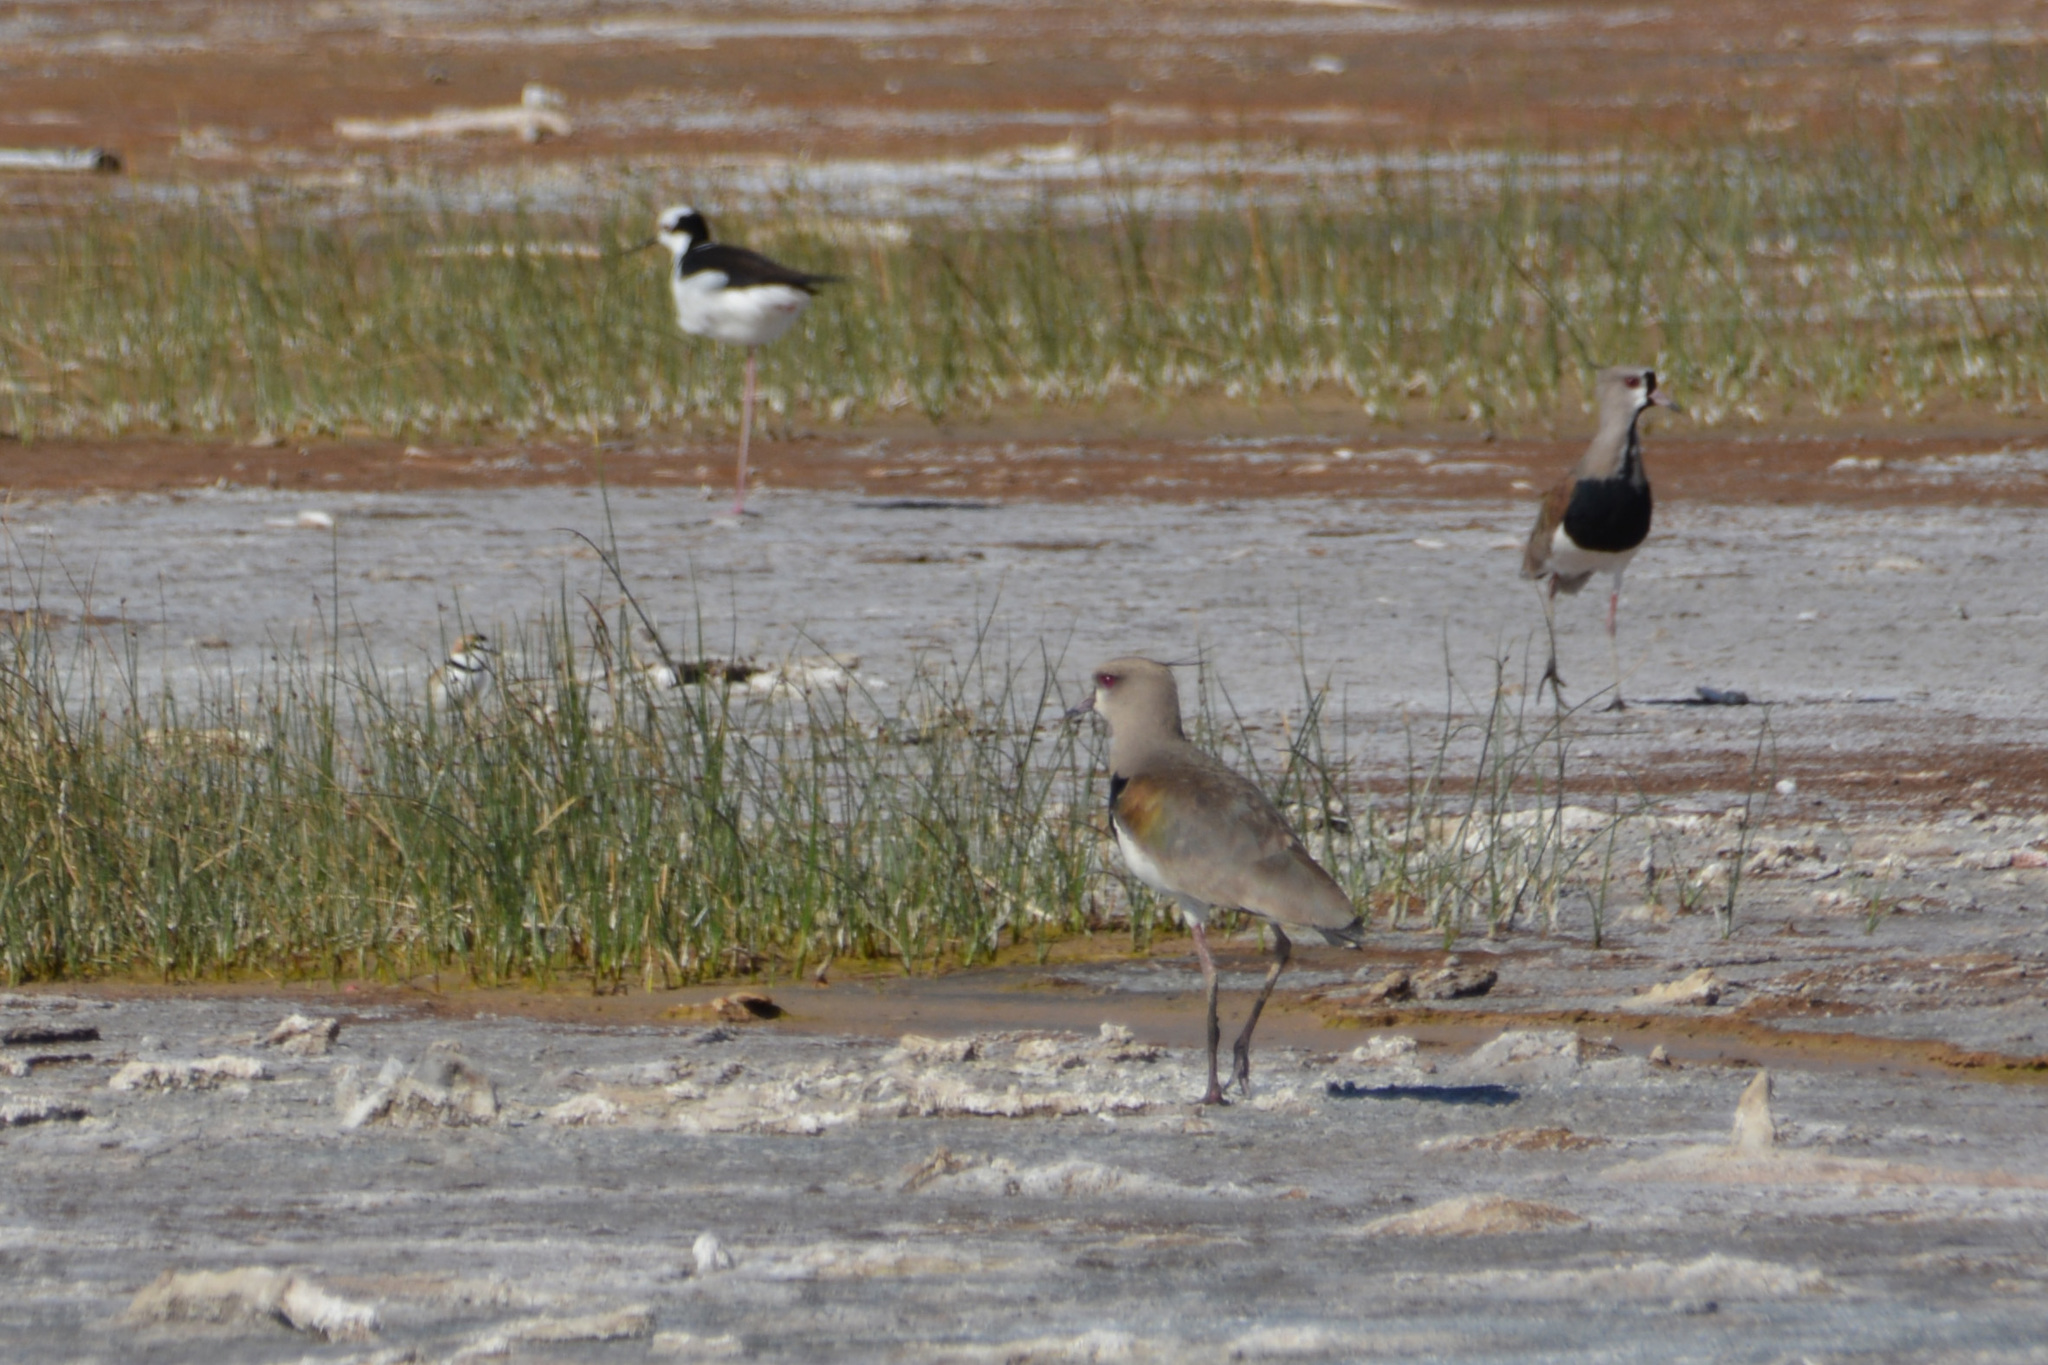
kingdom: Animalia
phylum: Chordata
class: Aves
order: Charadriiformes
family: Recurvirostridae
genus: Himantopus
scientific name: Himantopus mexicanus
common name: Black-necked stilt
